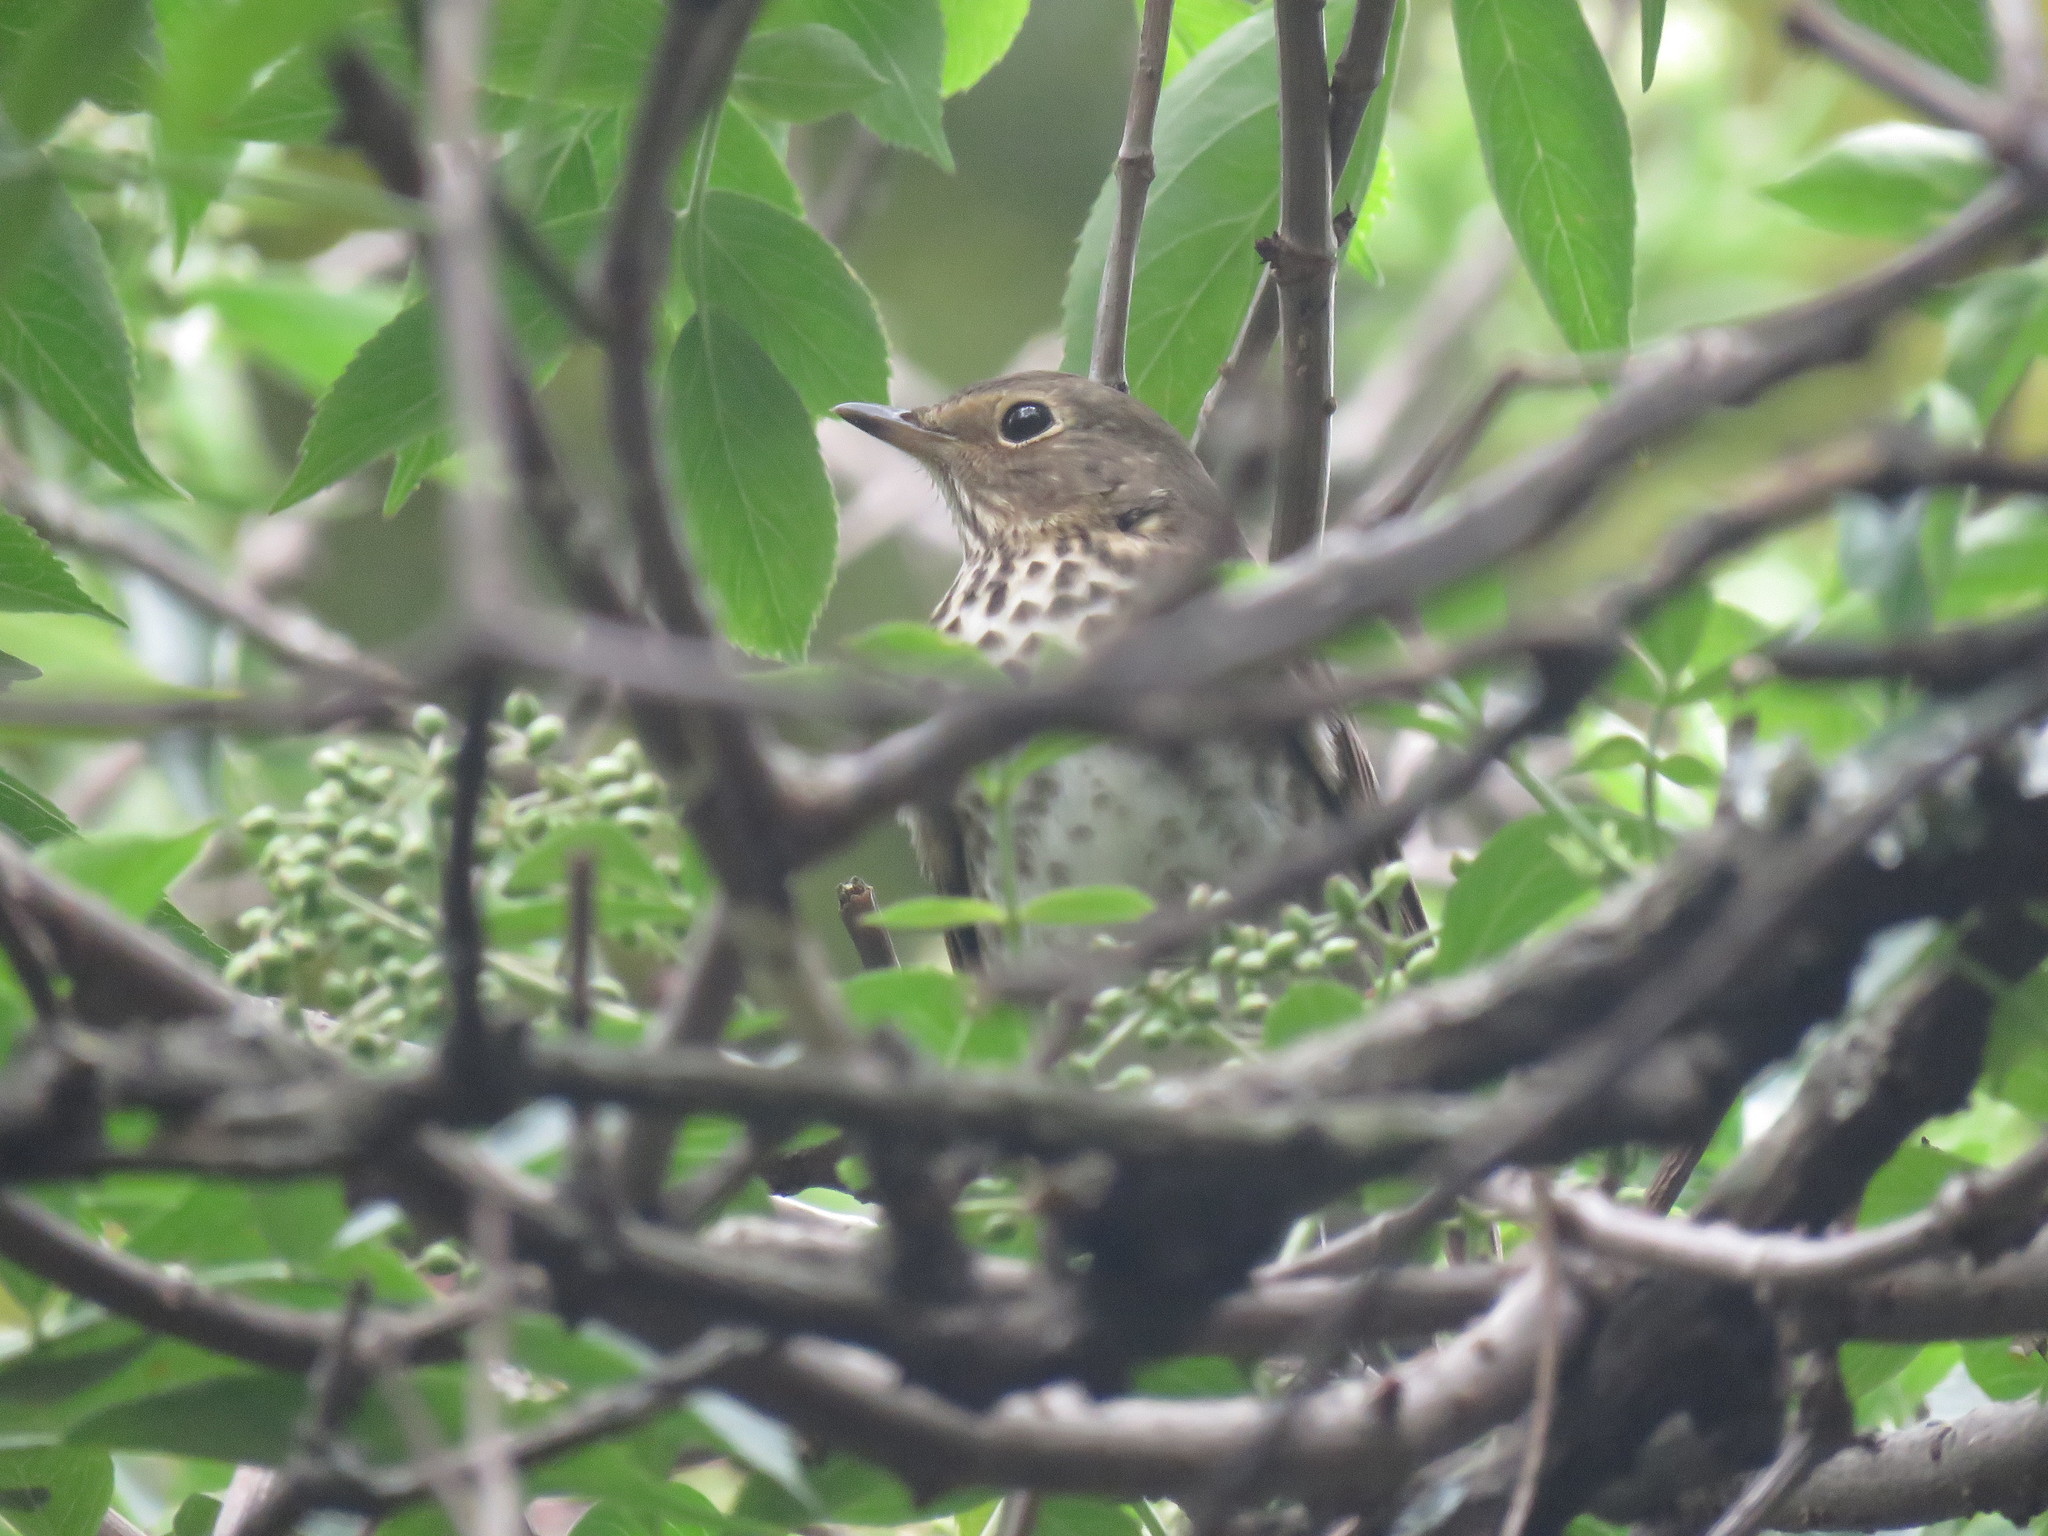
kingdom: Animalia
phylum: Chordata
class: Aves
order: Passeriformes
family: Turdidae
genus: Catharus
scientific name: Catharus ustulatus
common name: Swainson's thrush
